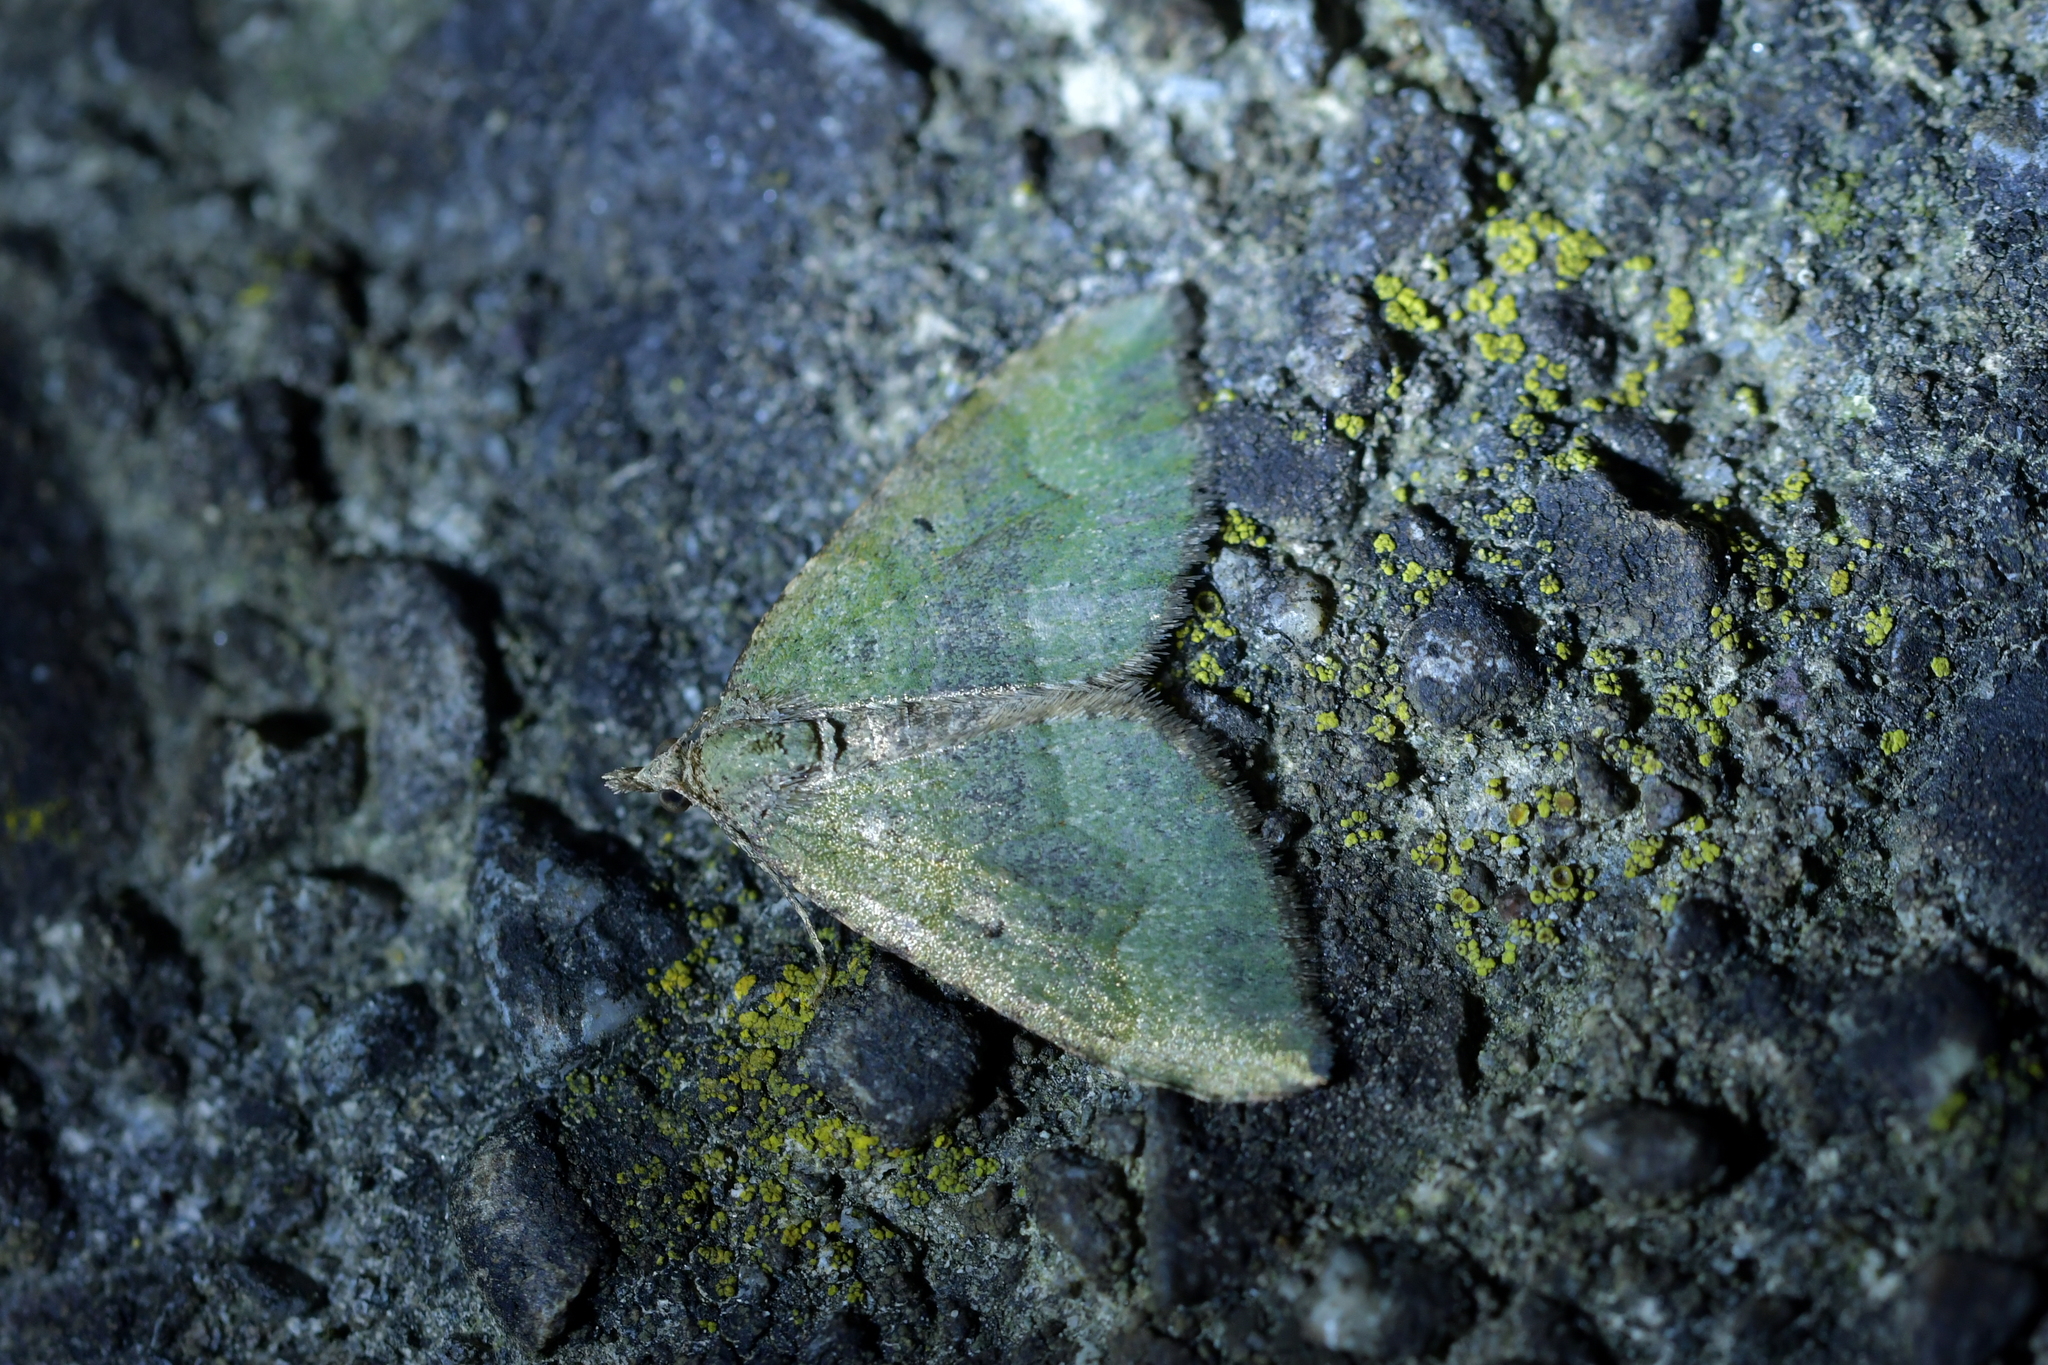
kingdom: Animalia
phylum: Arthropoda
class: Insecta
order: Lepidoptera
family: Geometridae
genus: Epyaxa
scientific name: Epyaxa rosearia
